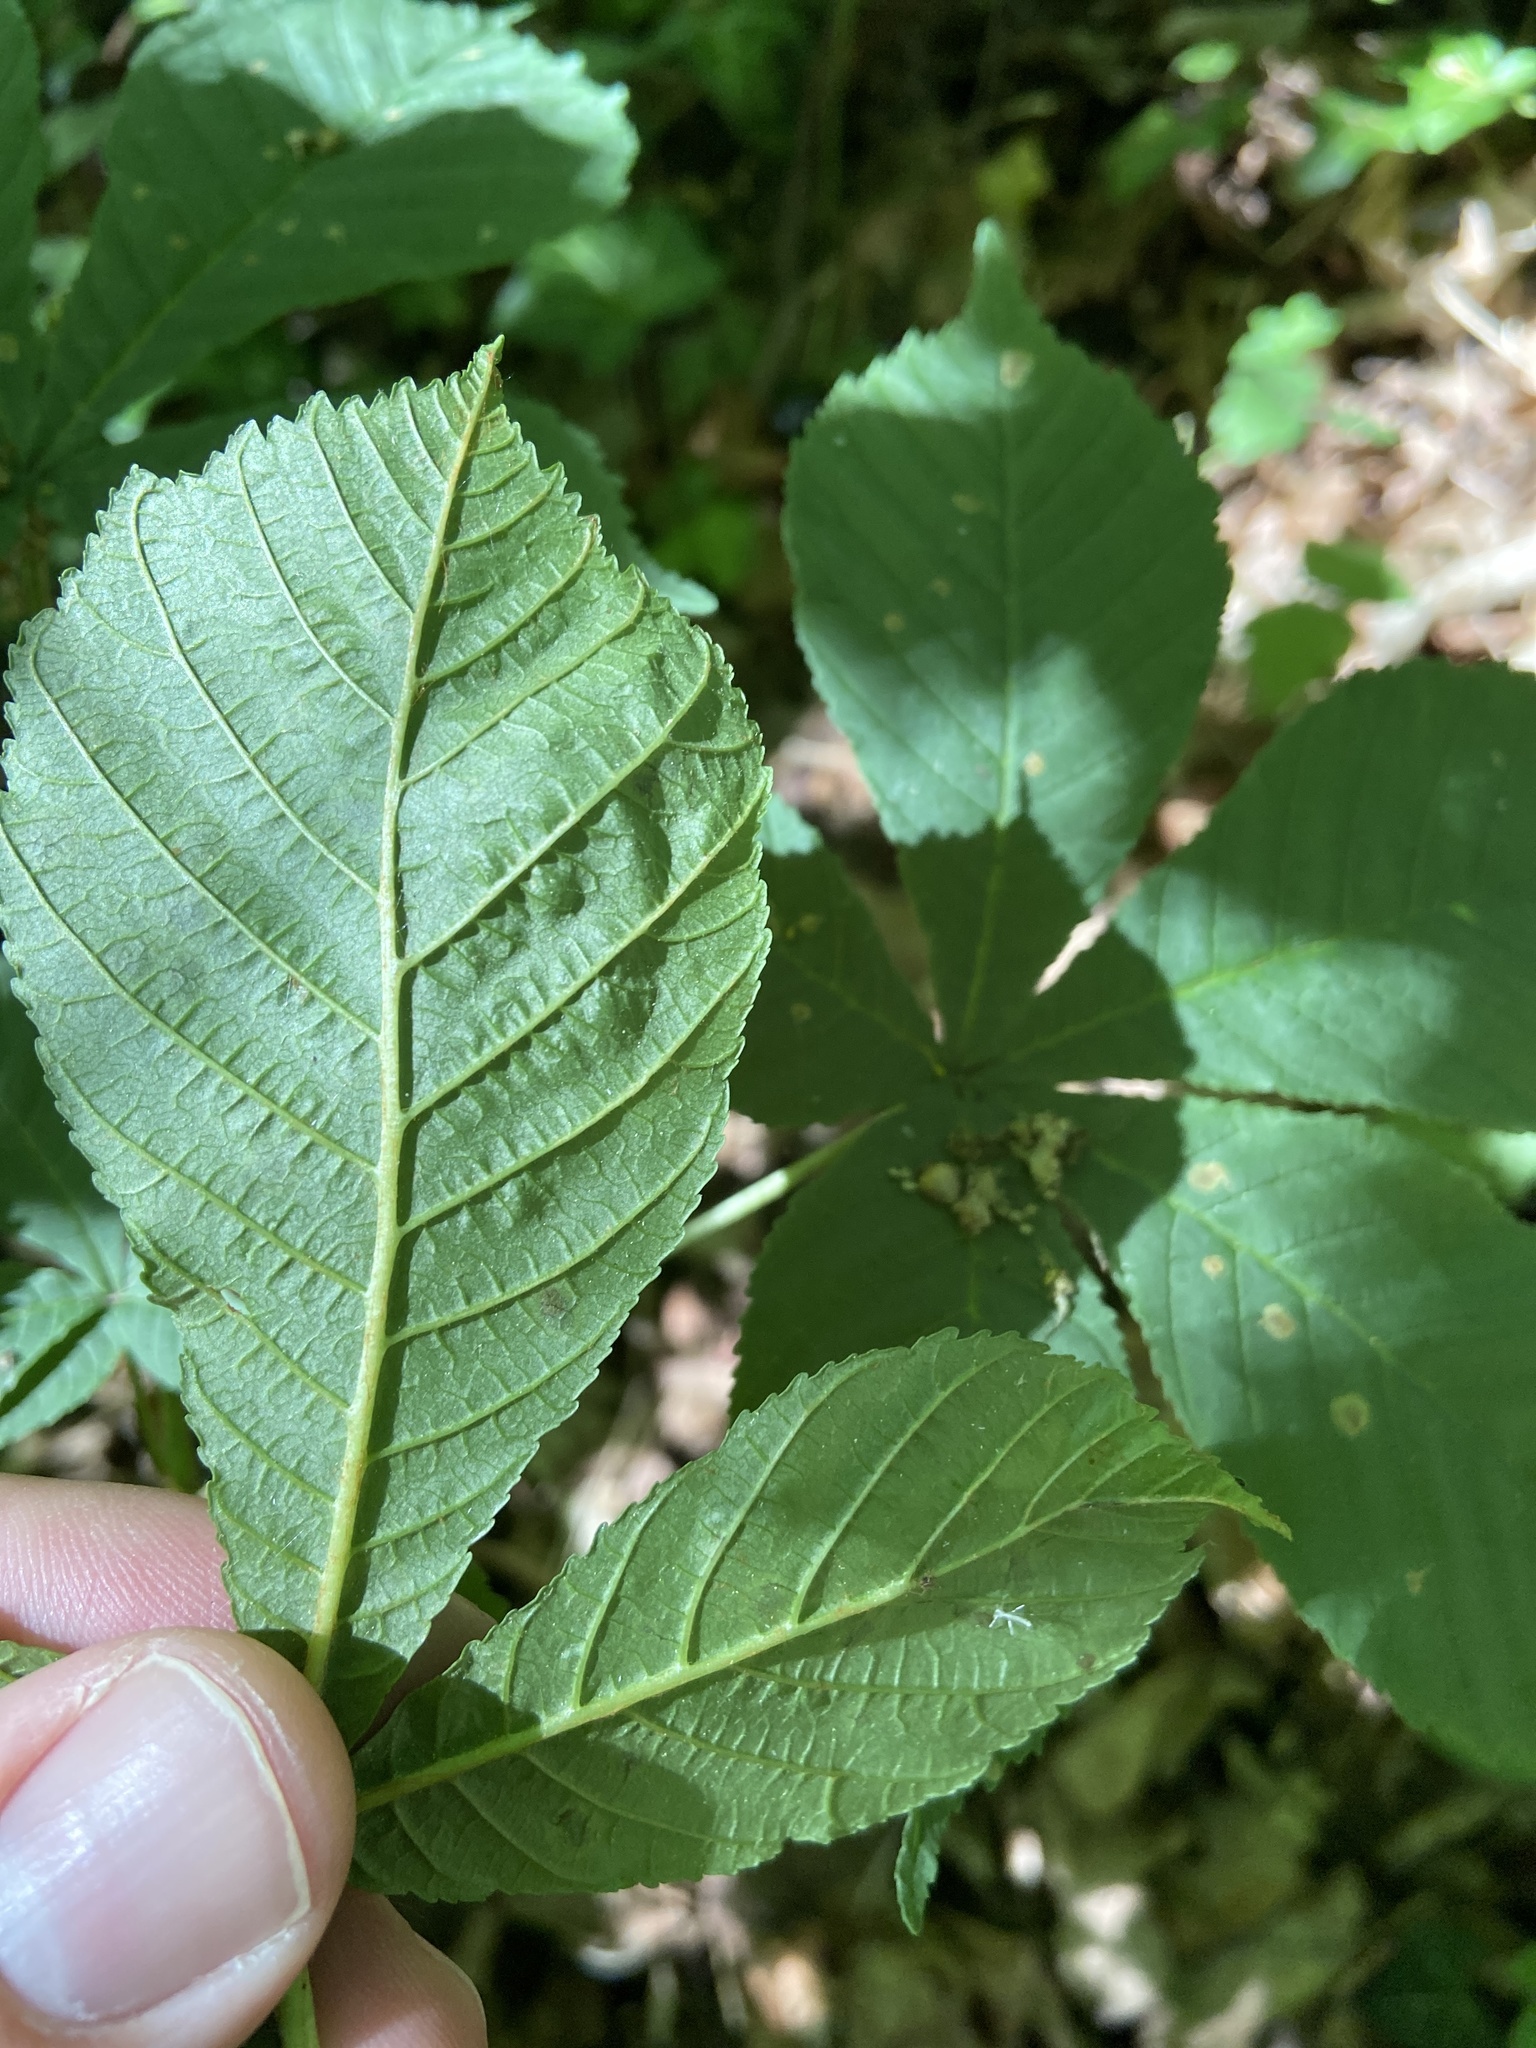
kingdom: Animalia
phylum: Arthropoda
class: Insecta
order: Lepidoptera
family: Gracillariidae
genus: Cameraria
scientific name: Cameraria ohridella
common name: Horse-chestnut leaf-miner
